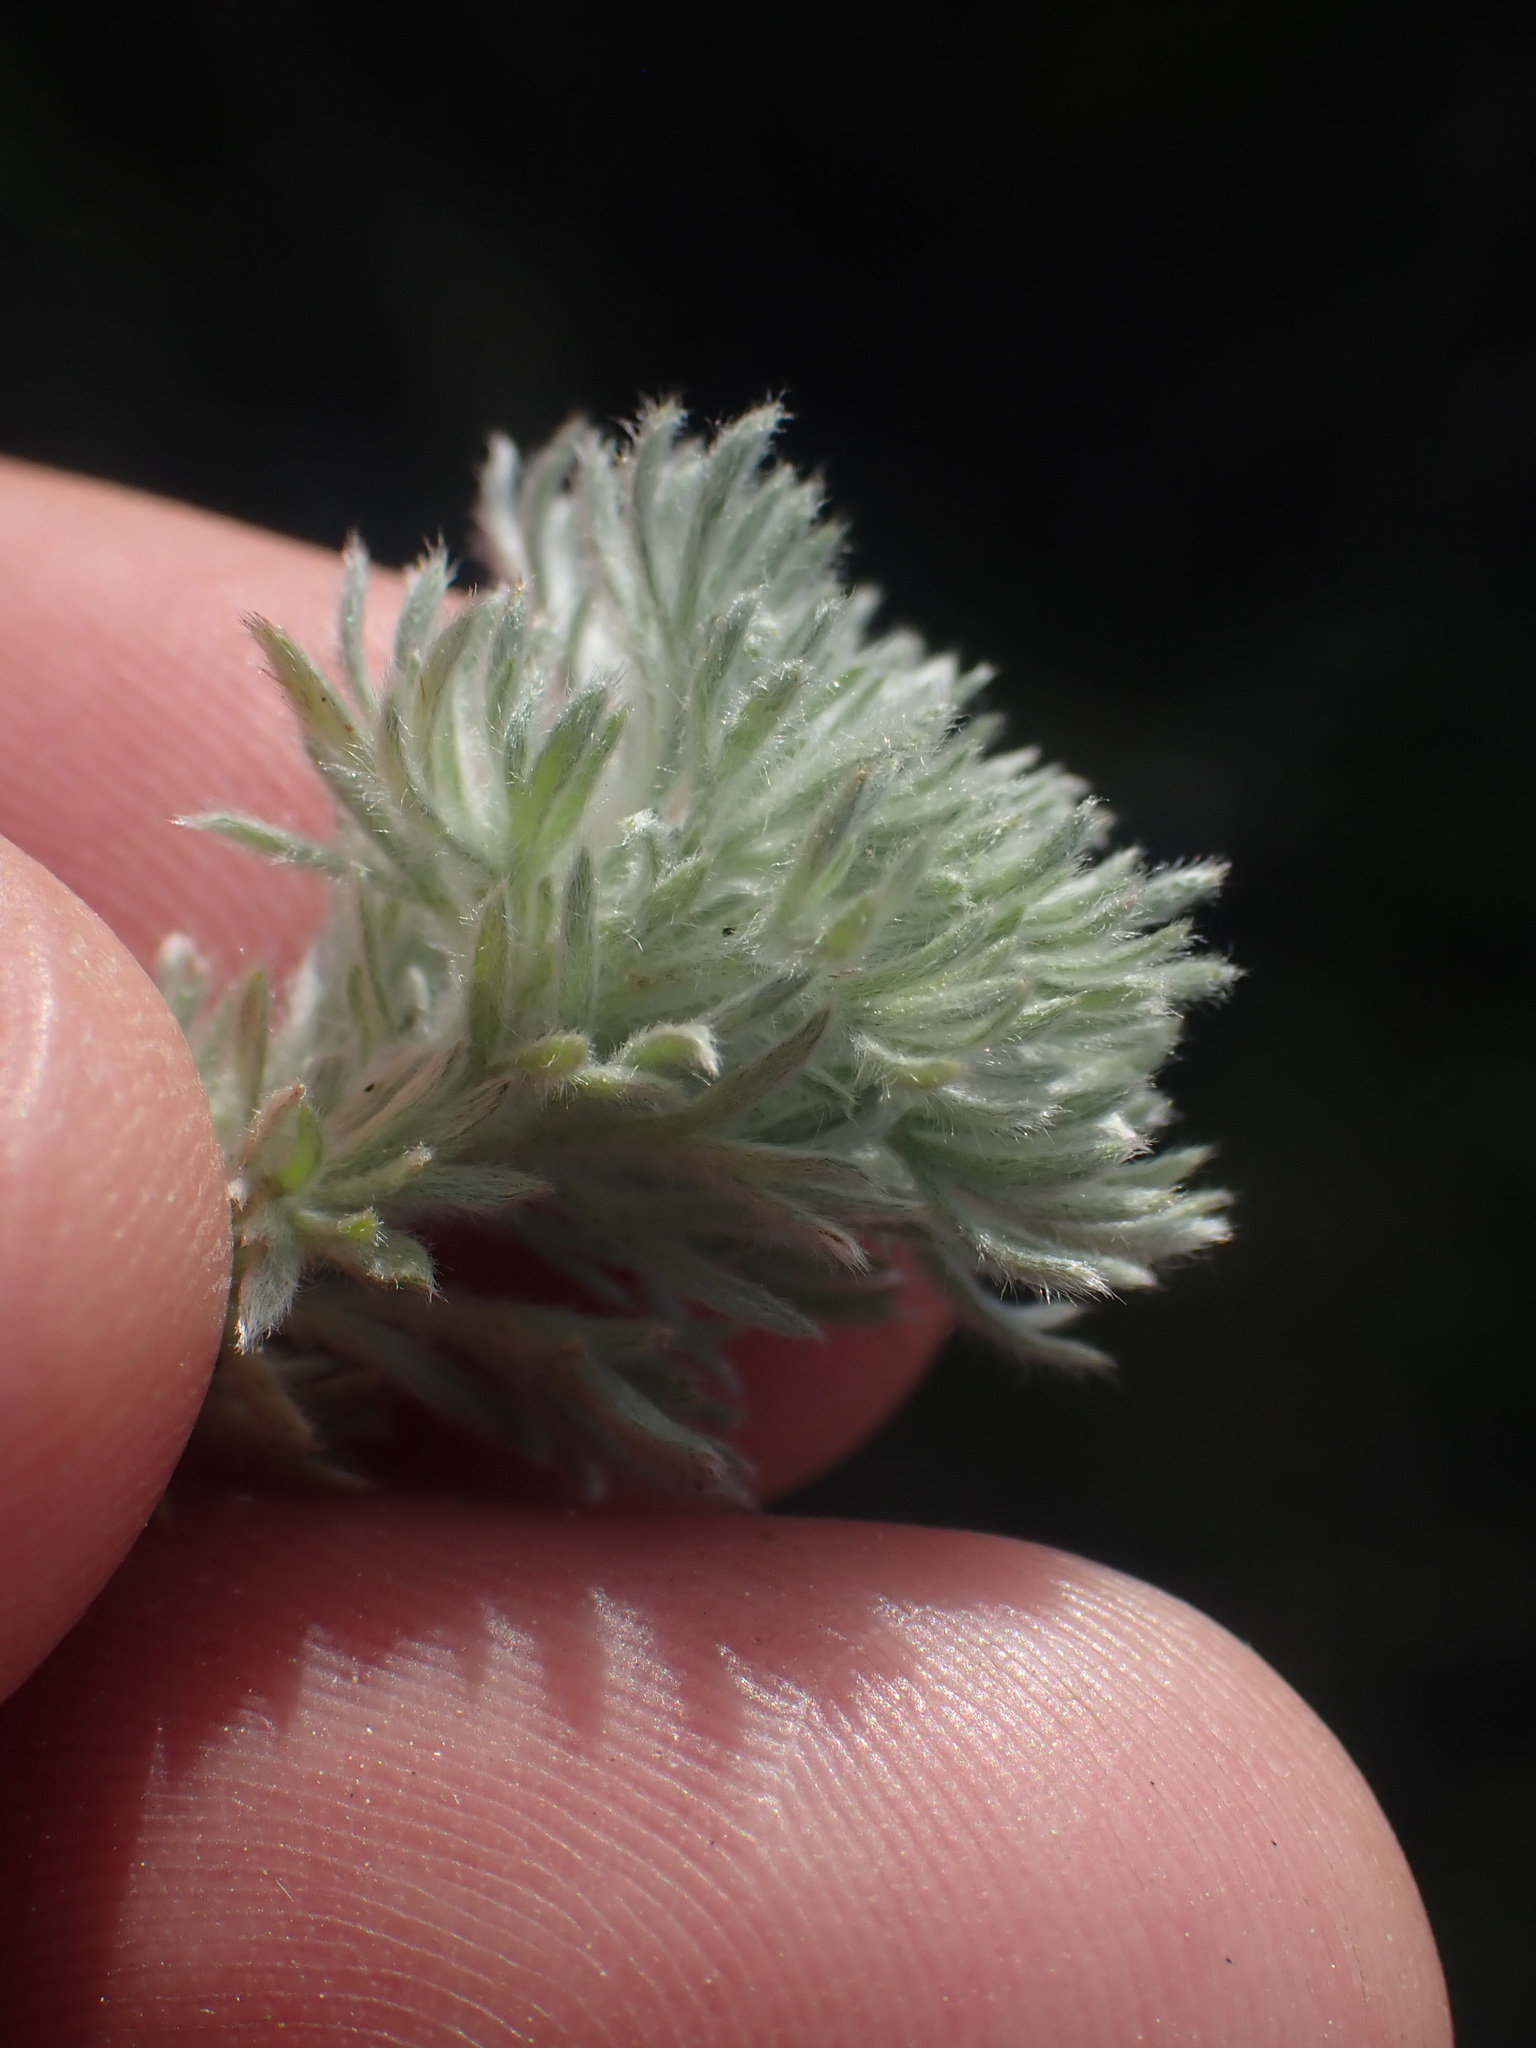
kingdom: Plantae
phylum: Tracheophyta
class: Magnoliopsida
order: Asterales
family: Asteraceae
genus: Artemisia
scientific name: Artemisia frigida
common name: Prairie sagewort
